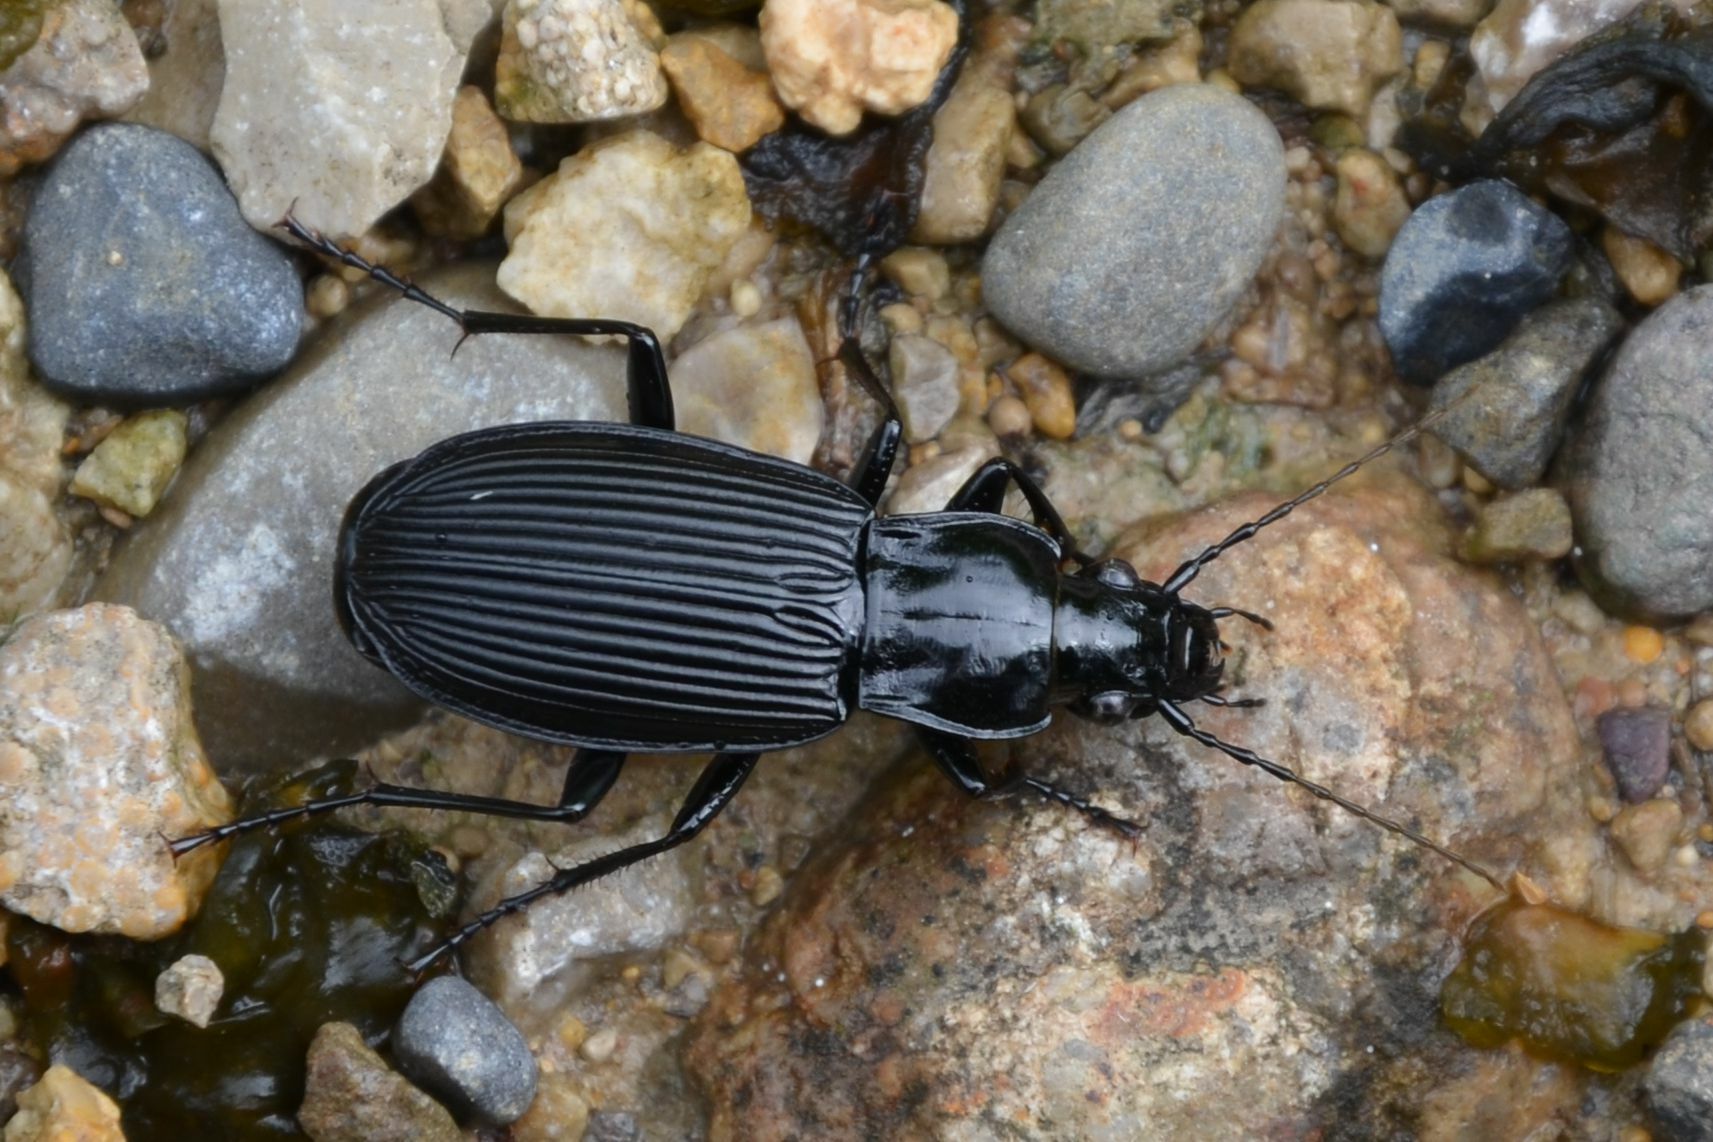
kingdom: Animalia
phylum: Arthropoda
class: Insecta
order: Coleoptera
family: Carabidae
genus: Pterostichus
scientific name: Pterostichus niger
